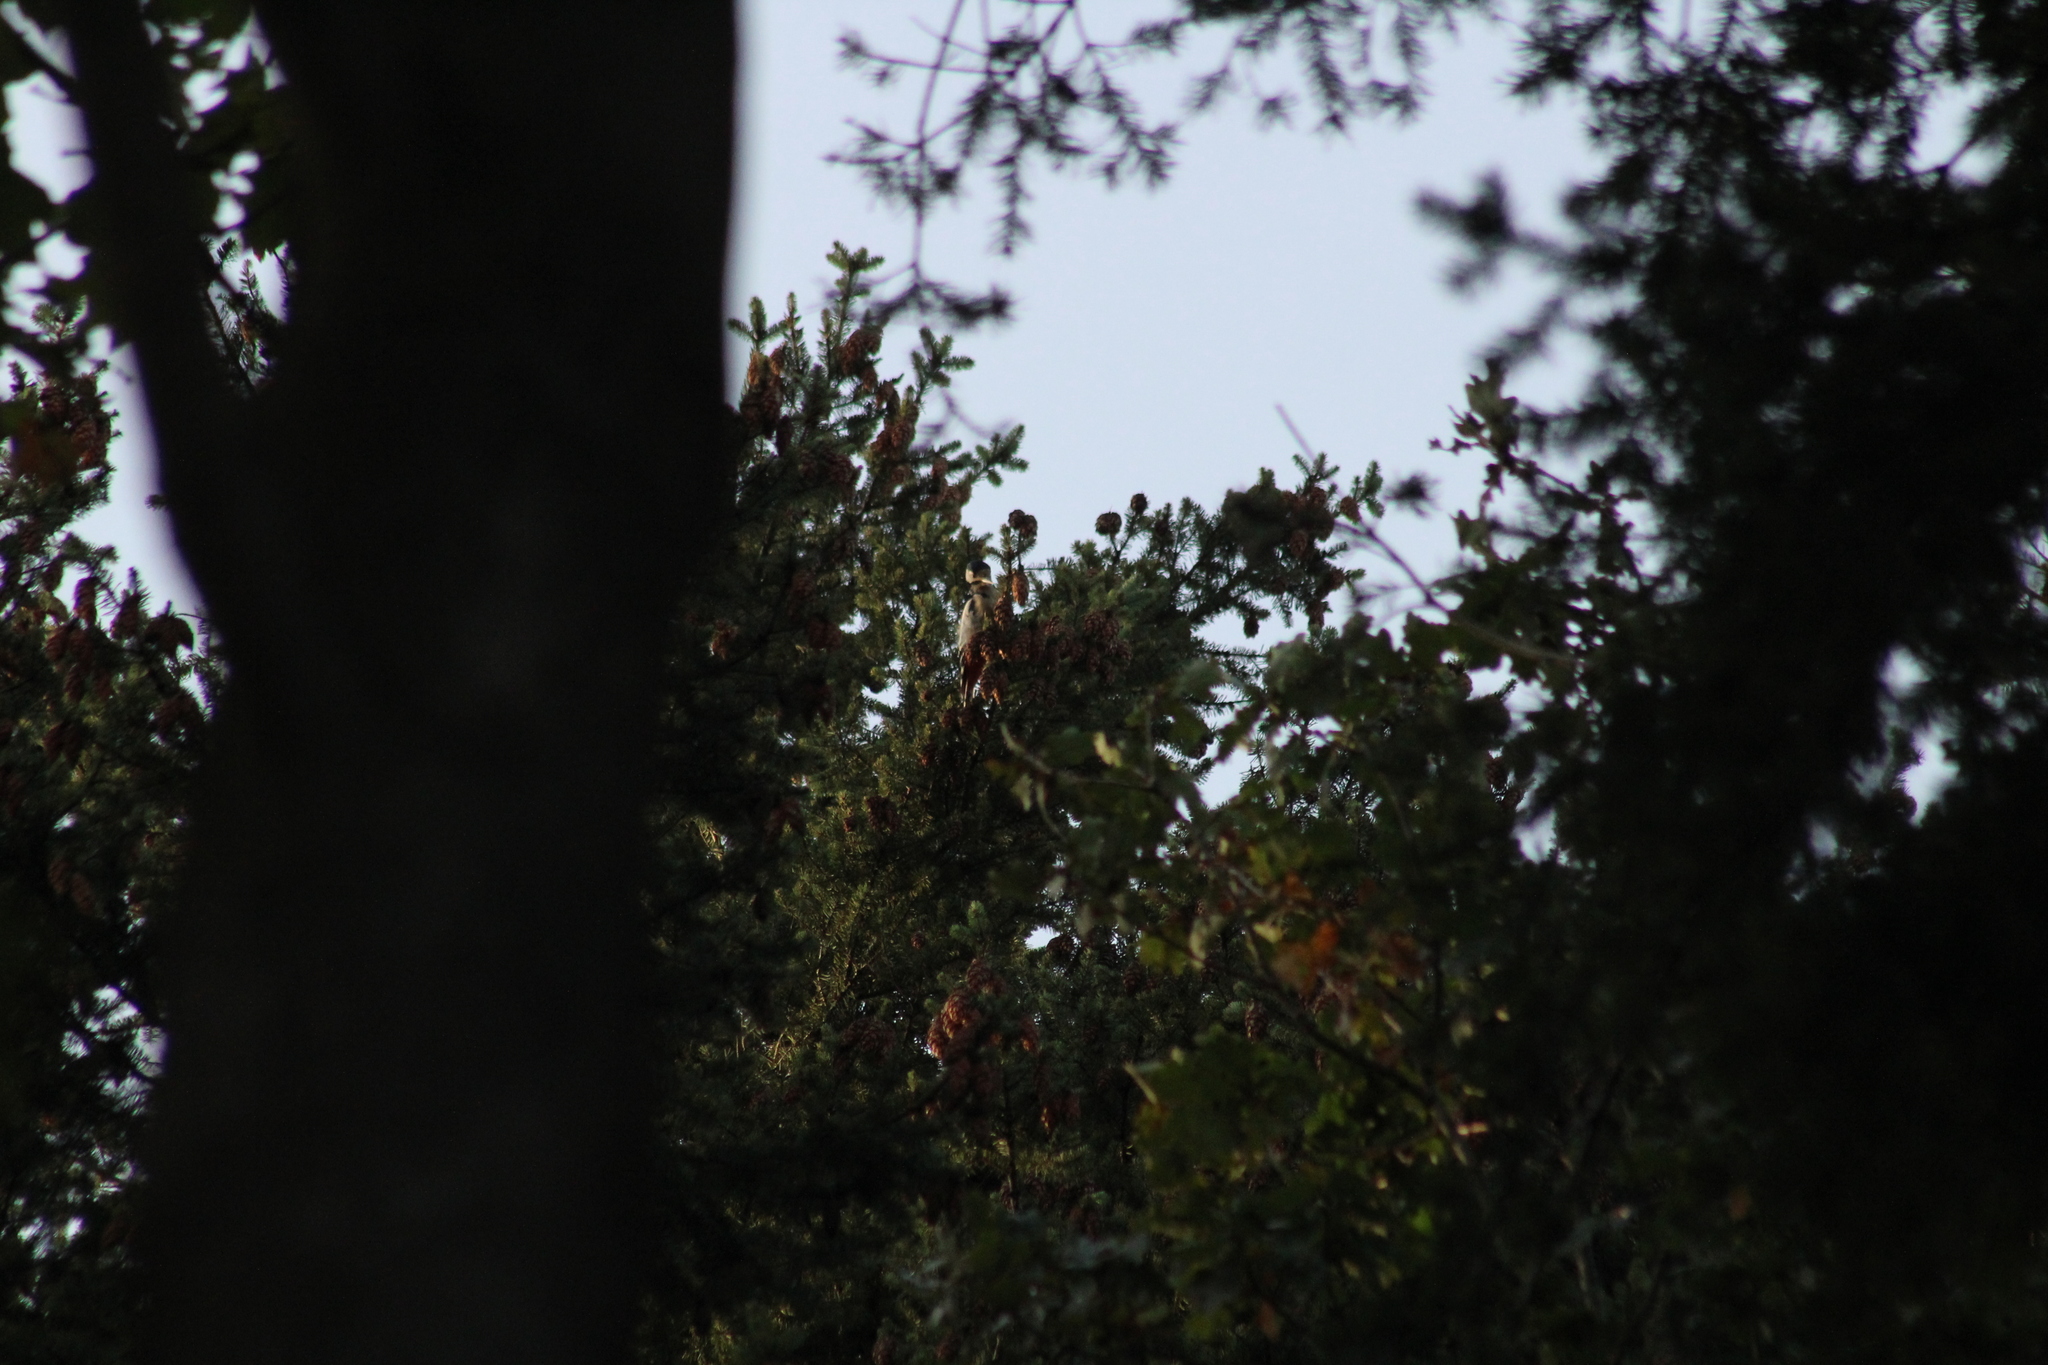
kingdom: Animalia
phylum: Chordata
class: Aves
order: Piciformes
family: Picidae
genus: Dendrocopos
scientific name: Dendrocopos major
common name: Great spotted woodpecker
